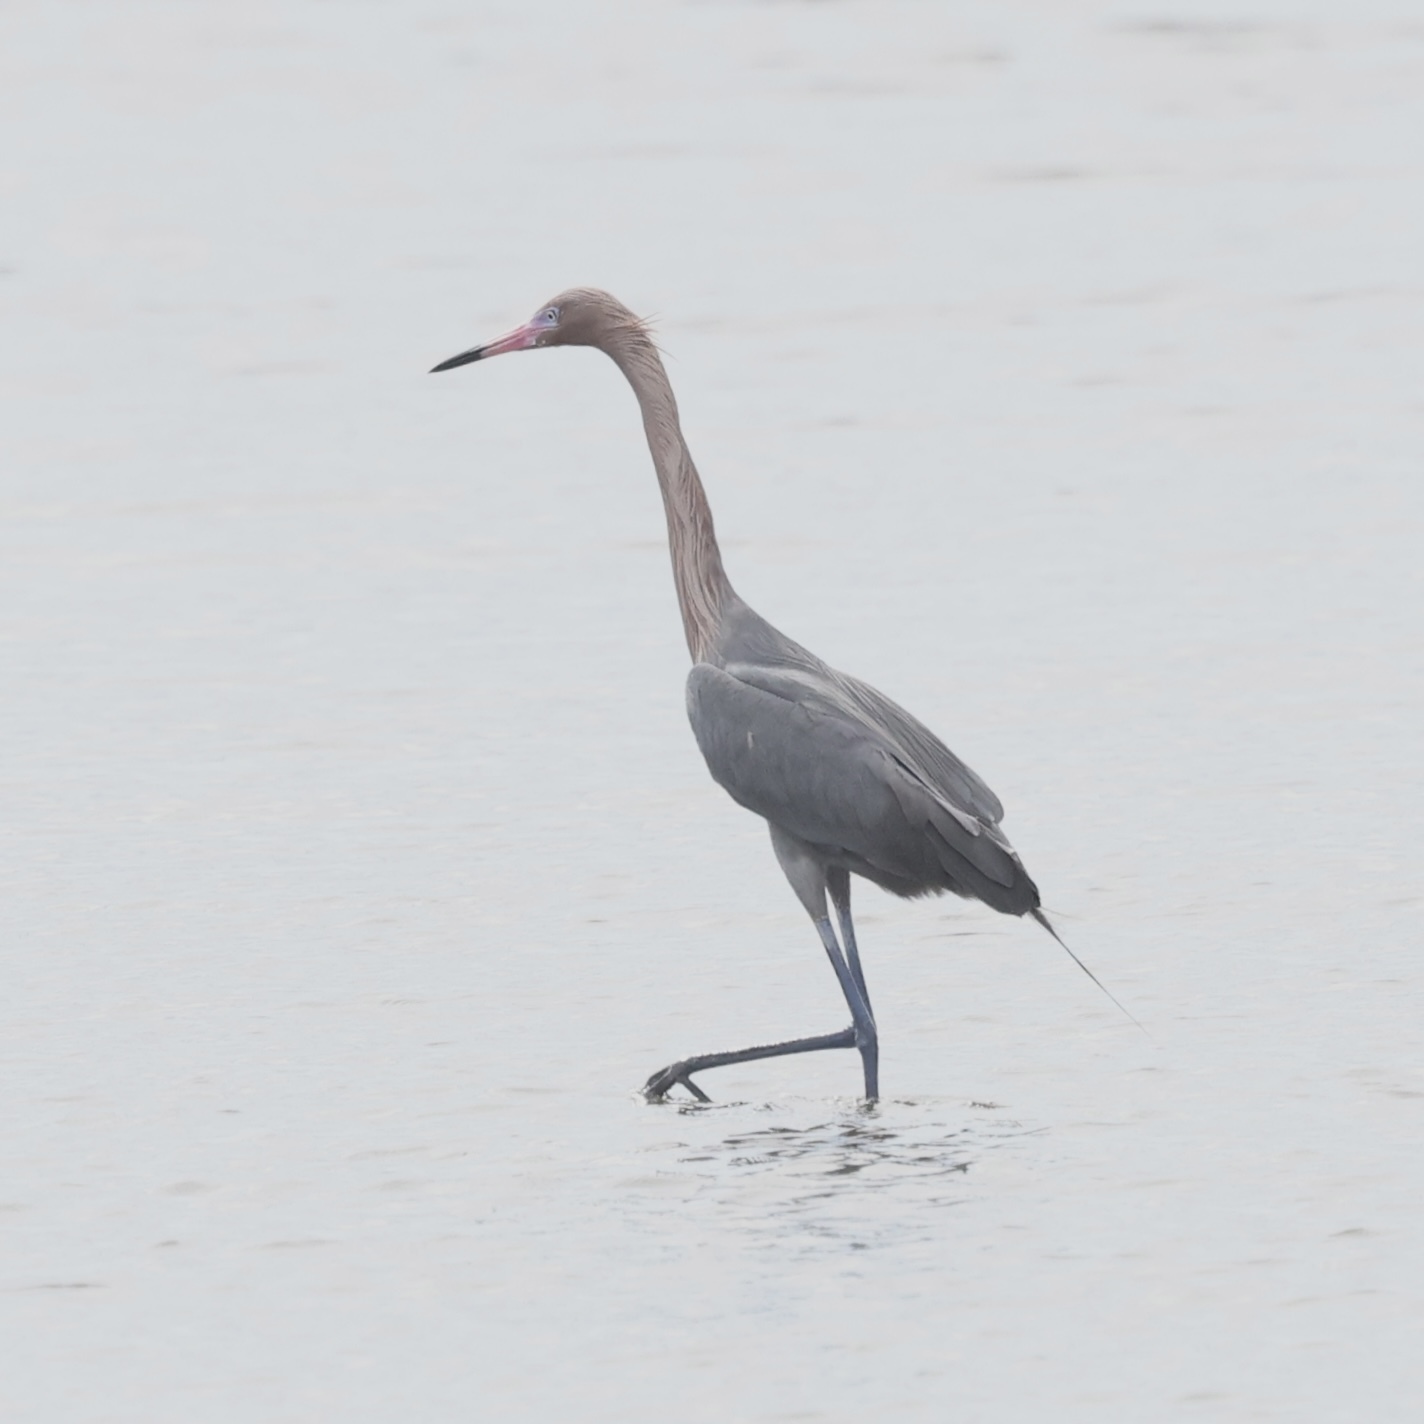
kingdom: Animalia
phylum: Chordata
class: Aves
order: Pelecaniformes
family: Ardeidae
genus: Egretta
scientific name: Egretta rufescens
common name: Reddish egret
